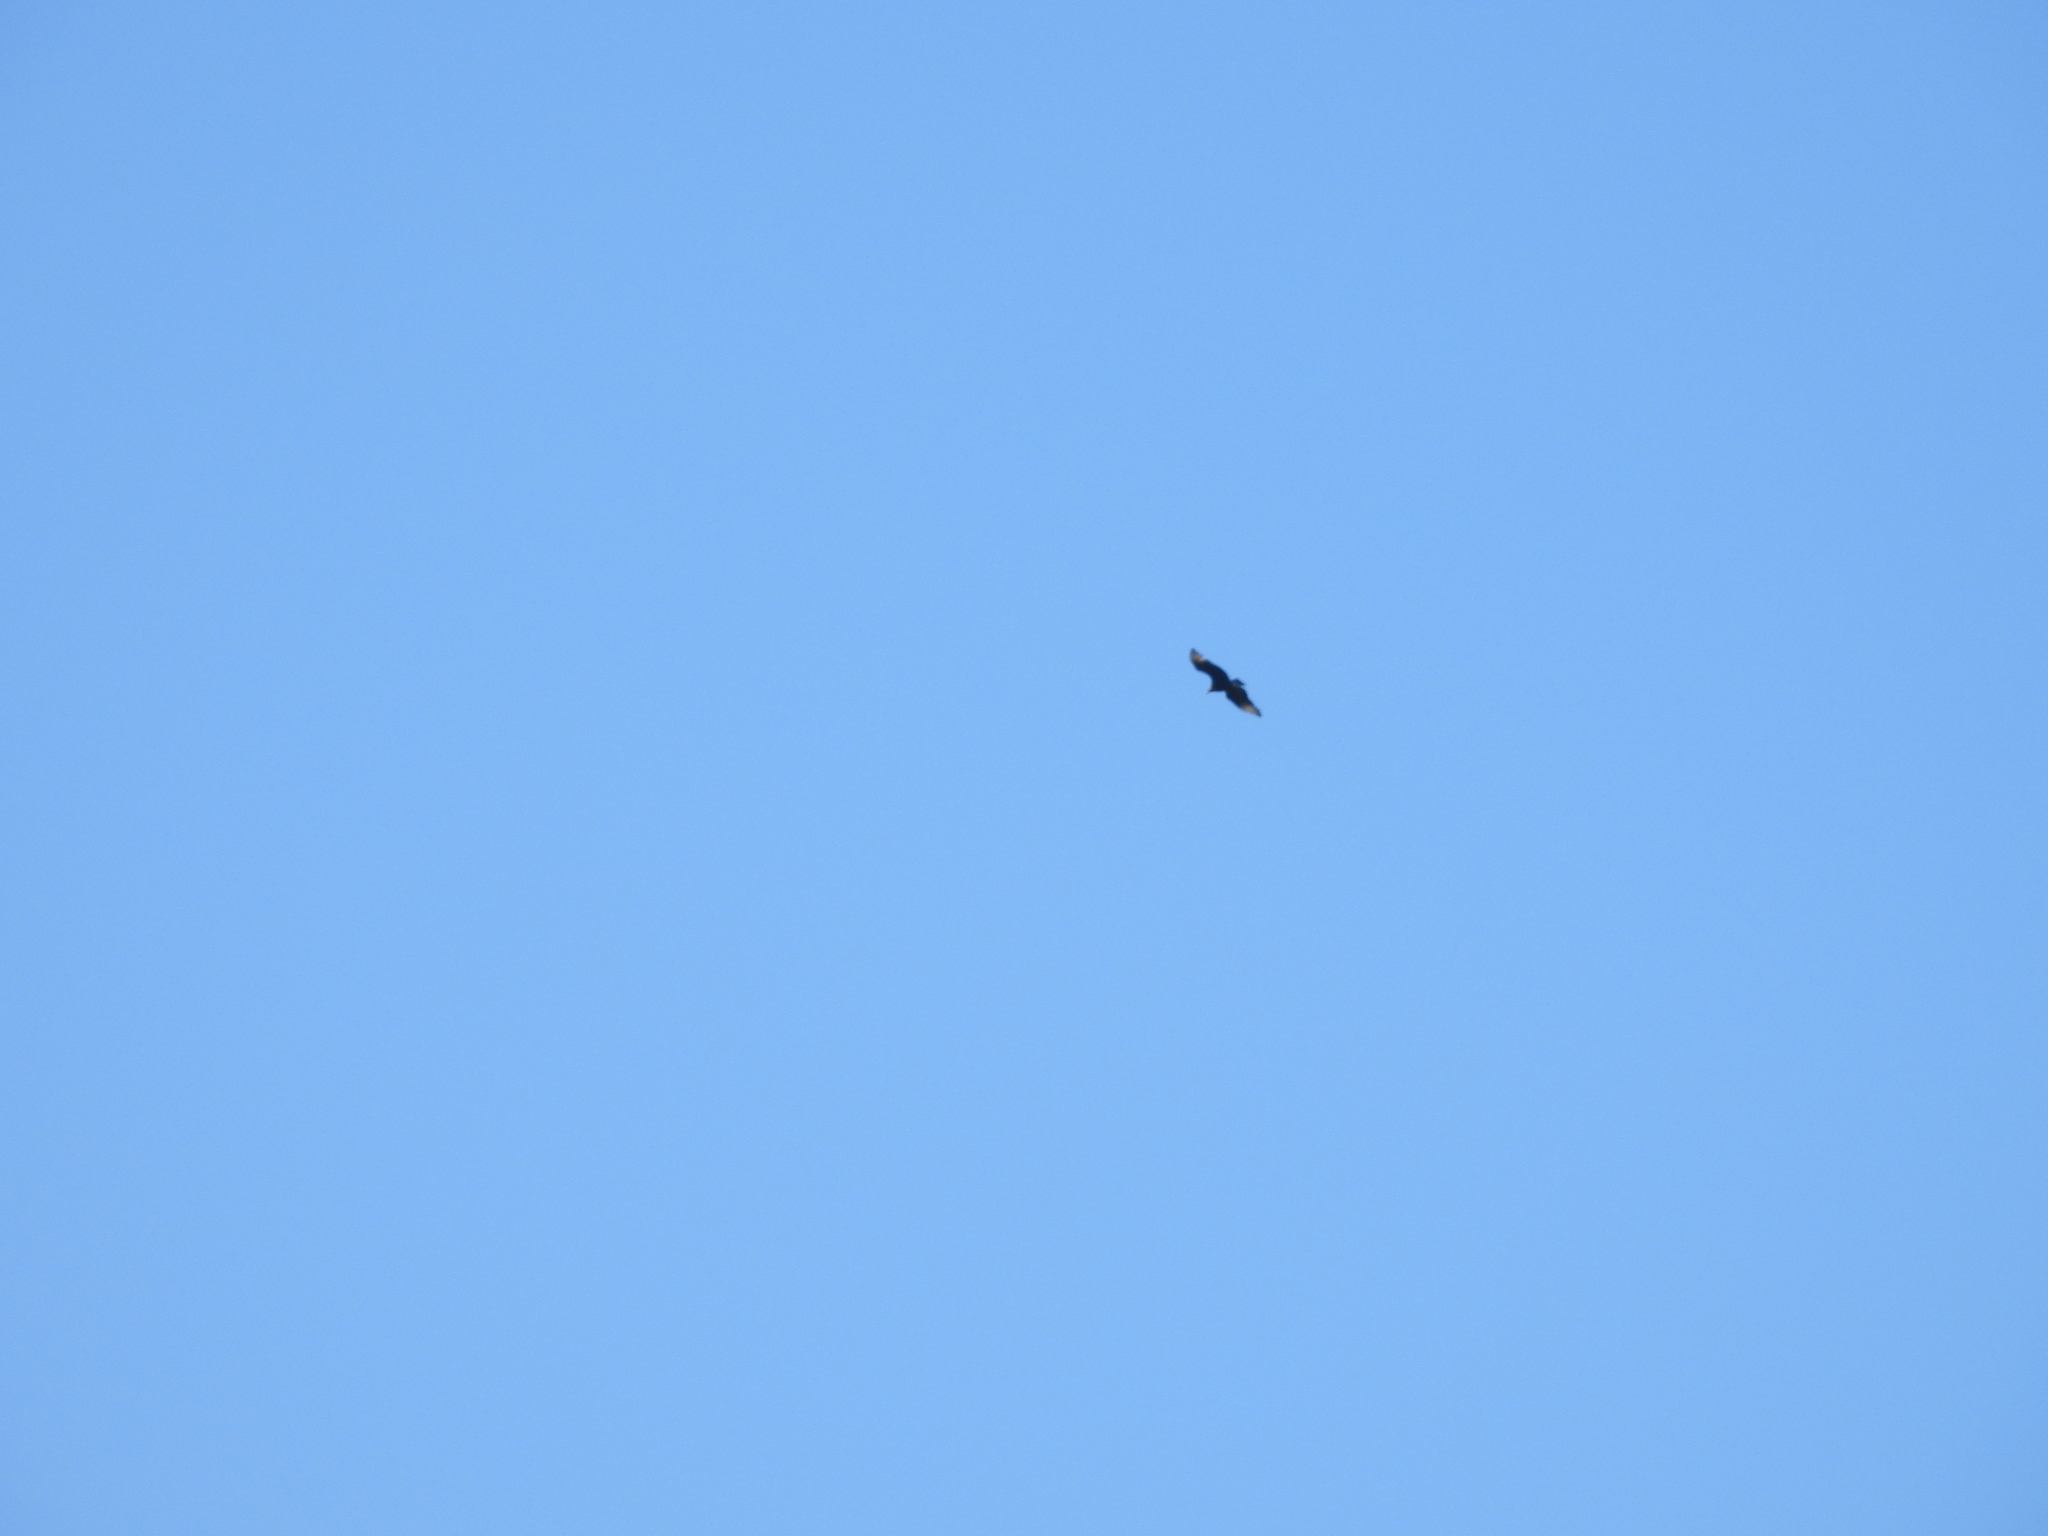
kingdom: Animalia
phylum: Chordata
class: Aves
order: Accipitriformes
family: Cathartidae
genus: Coragyps
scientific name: Coragyps atratus
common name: Black vulture
